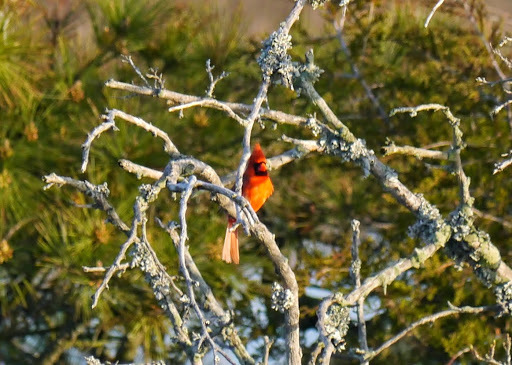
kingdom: Animalia
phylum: Chordata
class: Aves
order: Passeriformes
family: Cardinalidae
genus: Cardinalis
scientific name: Cardinalis cardinalis
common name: Northern cardinal
